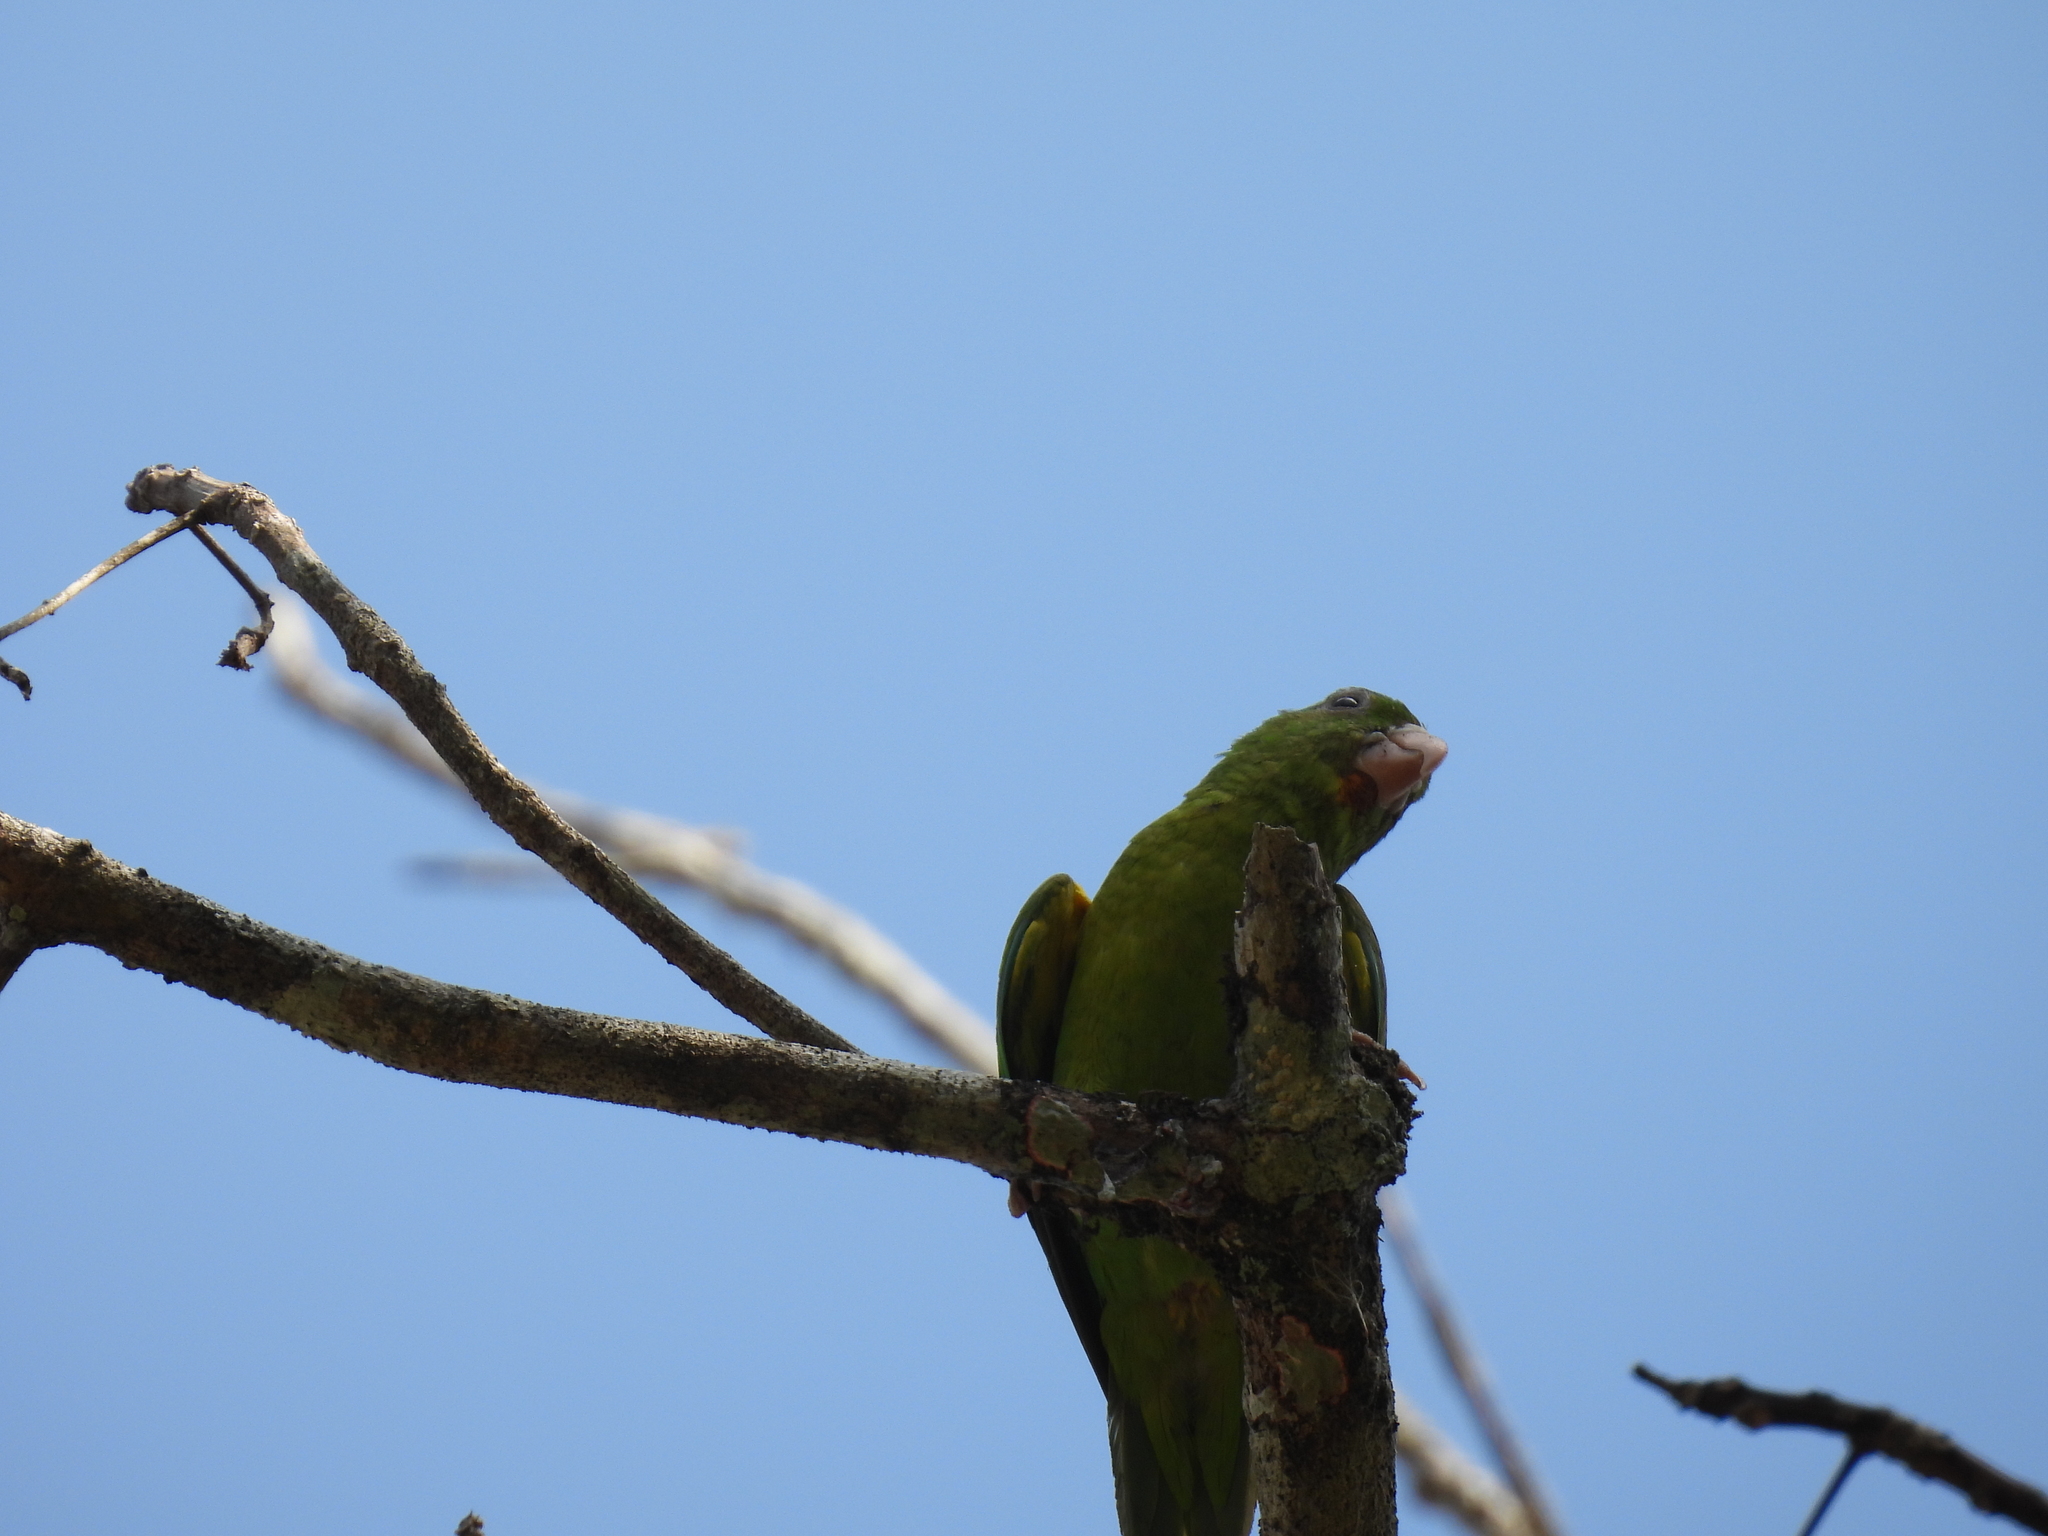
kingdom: Animalia
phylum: Chordata
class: Aves
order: Psittaciformes
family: Psittacidae
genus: Brotogeris
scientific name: Brotogeris jugularis
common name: Orange-chinned parakeet
